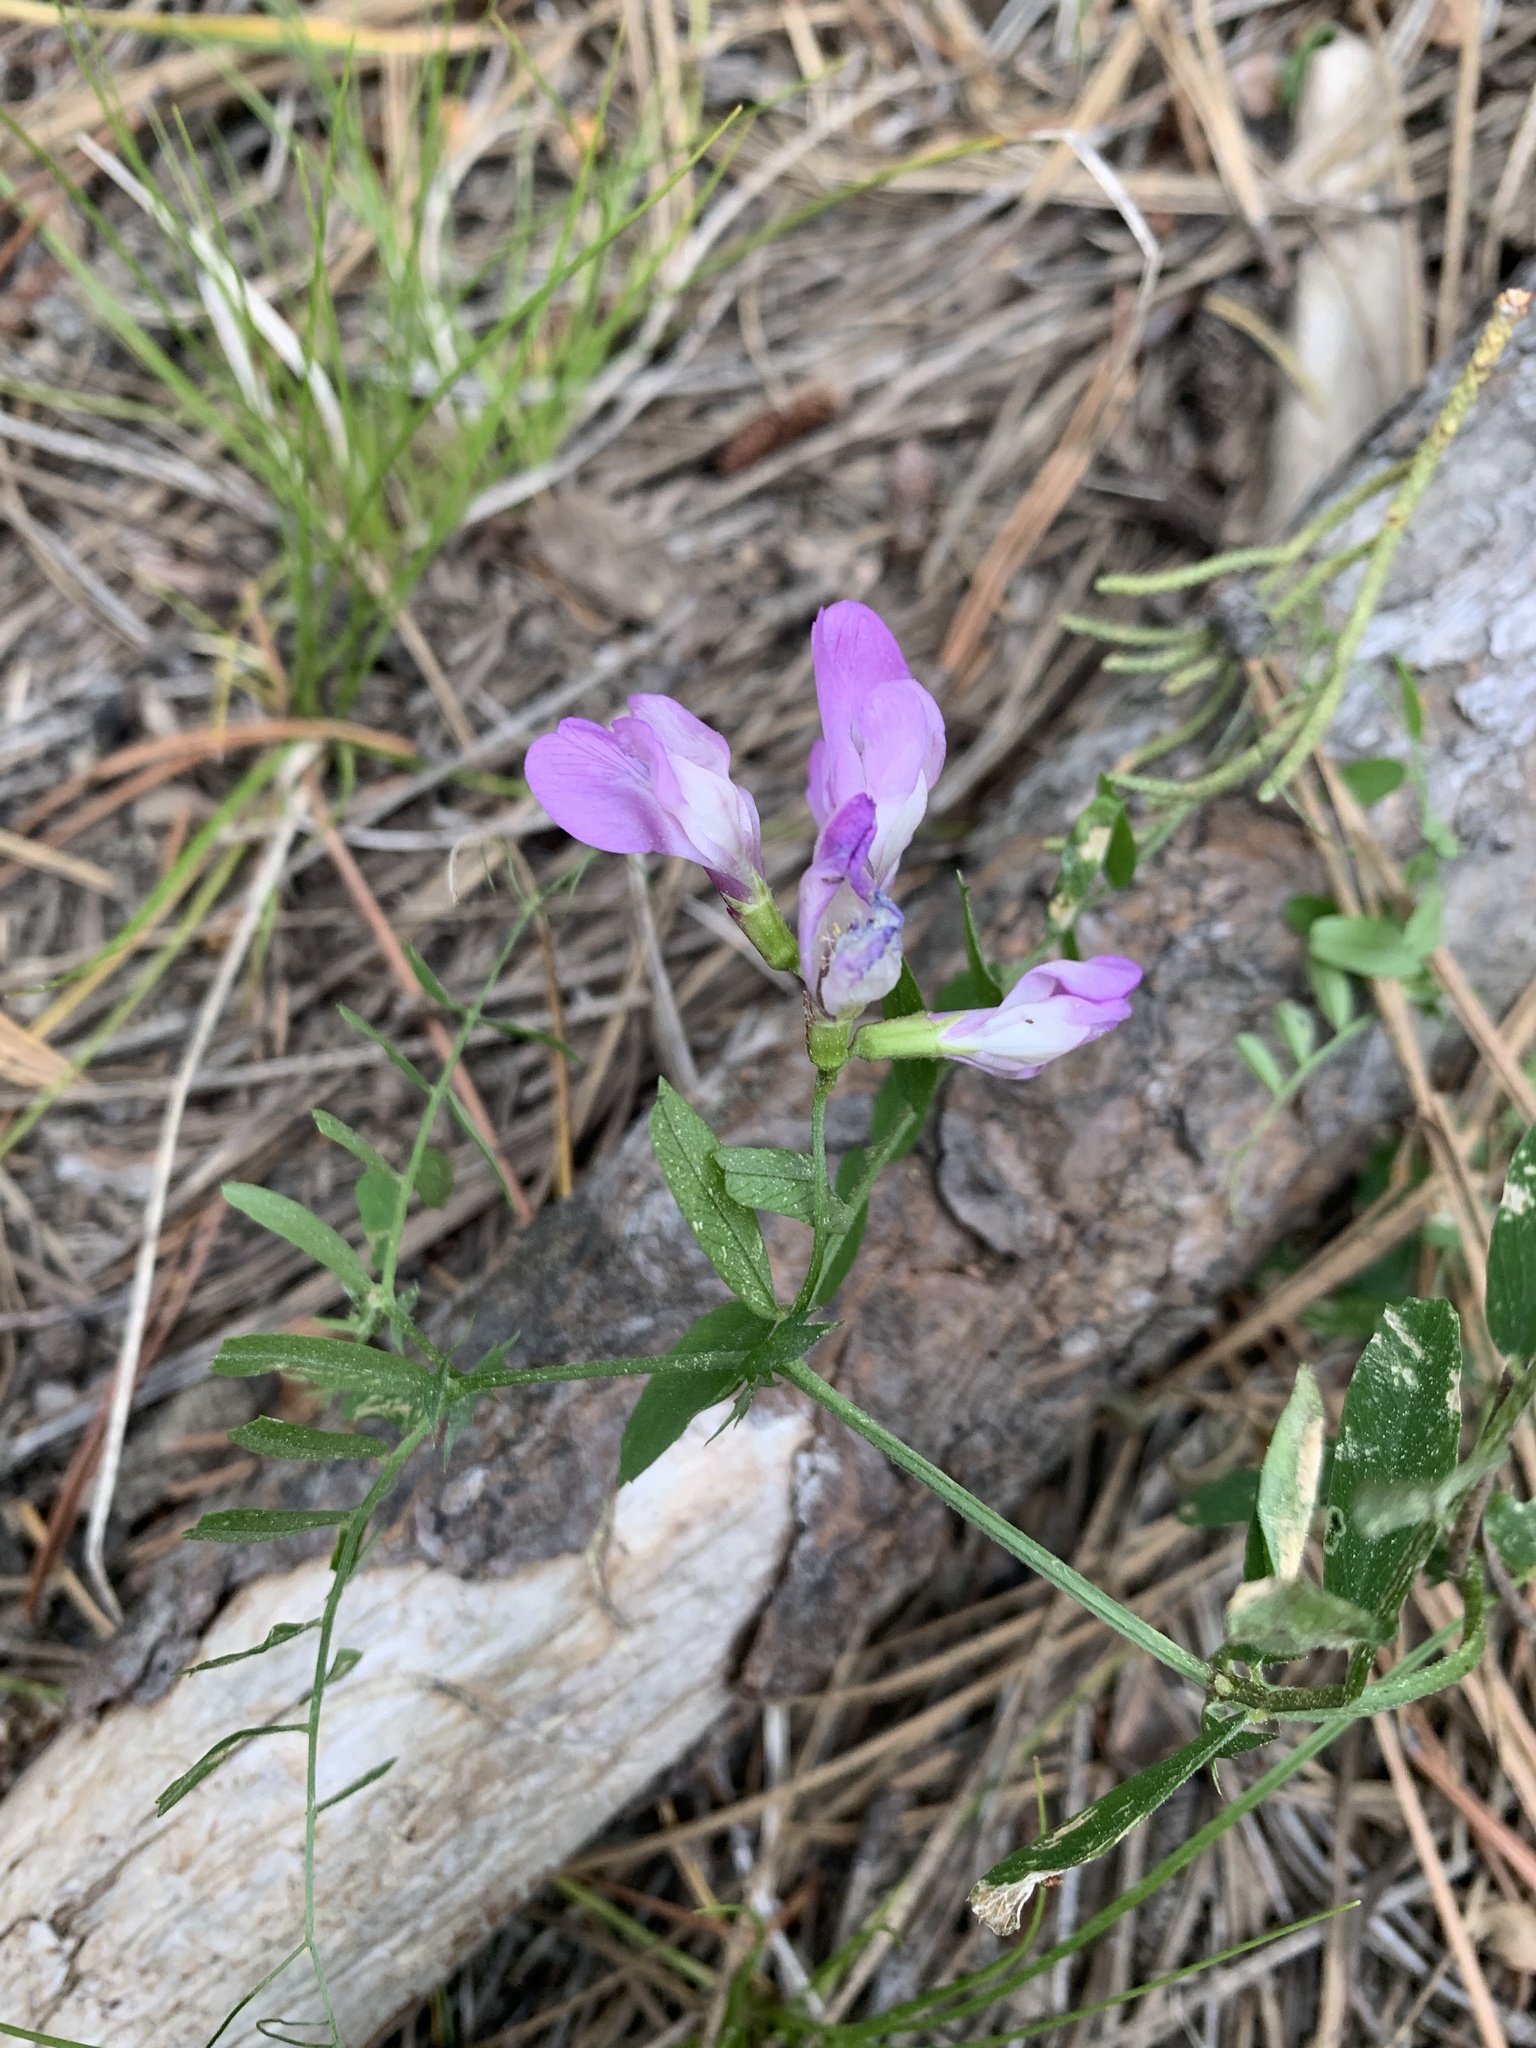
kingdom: Plantae
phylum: Tracheophyta
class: Magnoliopsida
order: Fabales
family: Fabaceae
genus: Vicia
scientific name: Vicia americana
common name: American vetch
